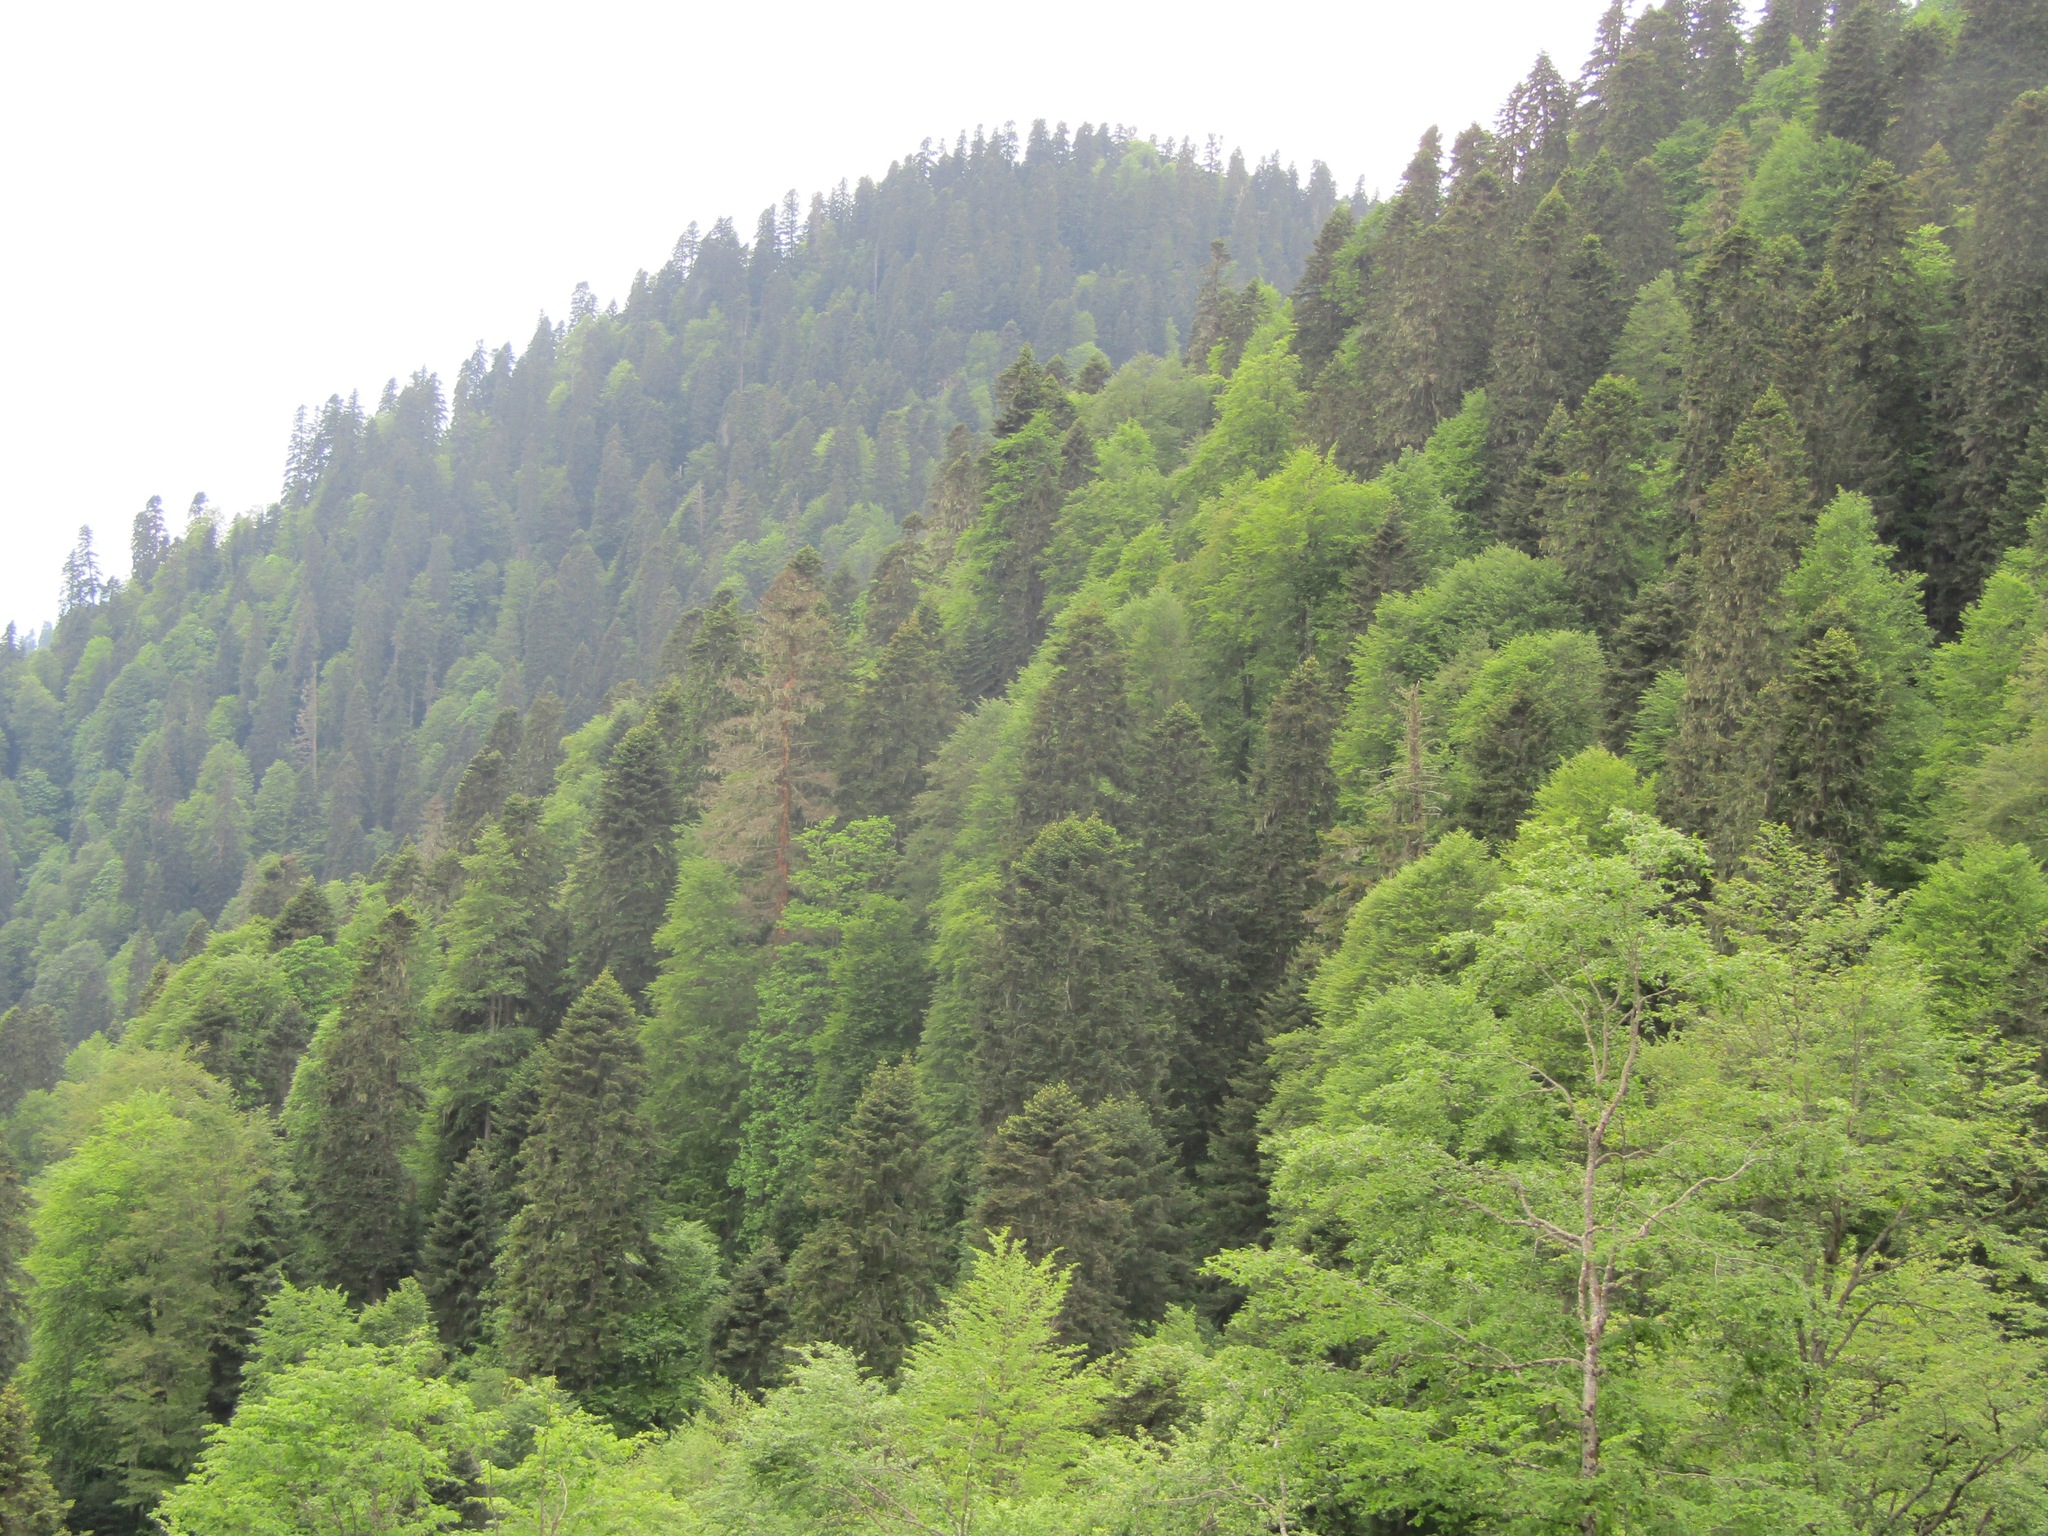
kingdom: Plantae
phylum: Tracheophyta
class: Pinopsida
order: Pinales
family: Pinaceae
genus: Abies
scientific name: Abies nordmanniana
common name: Caucasian fir
